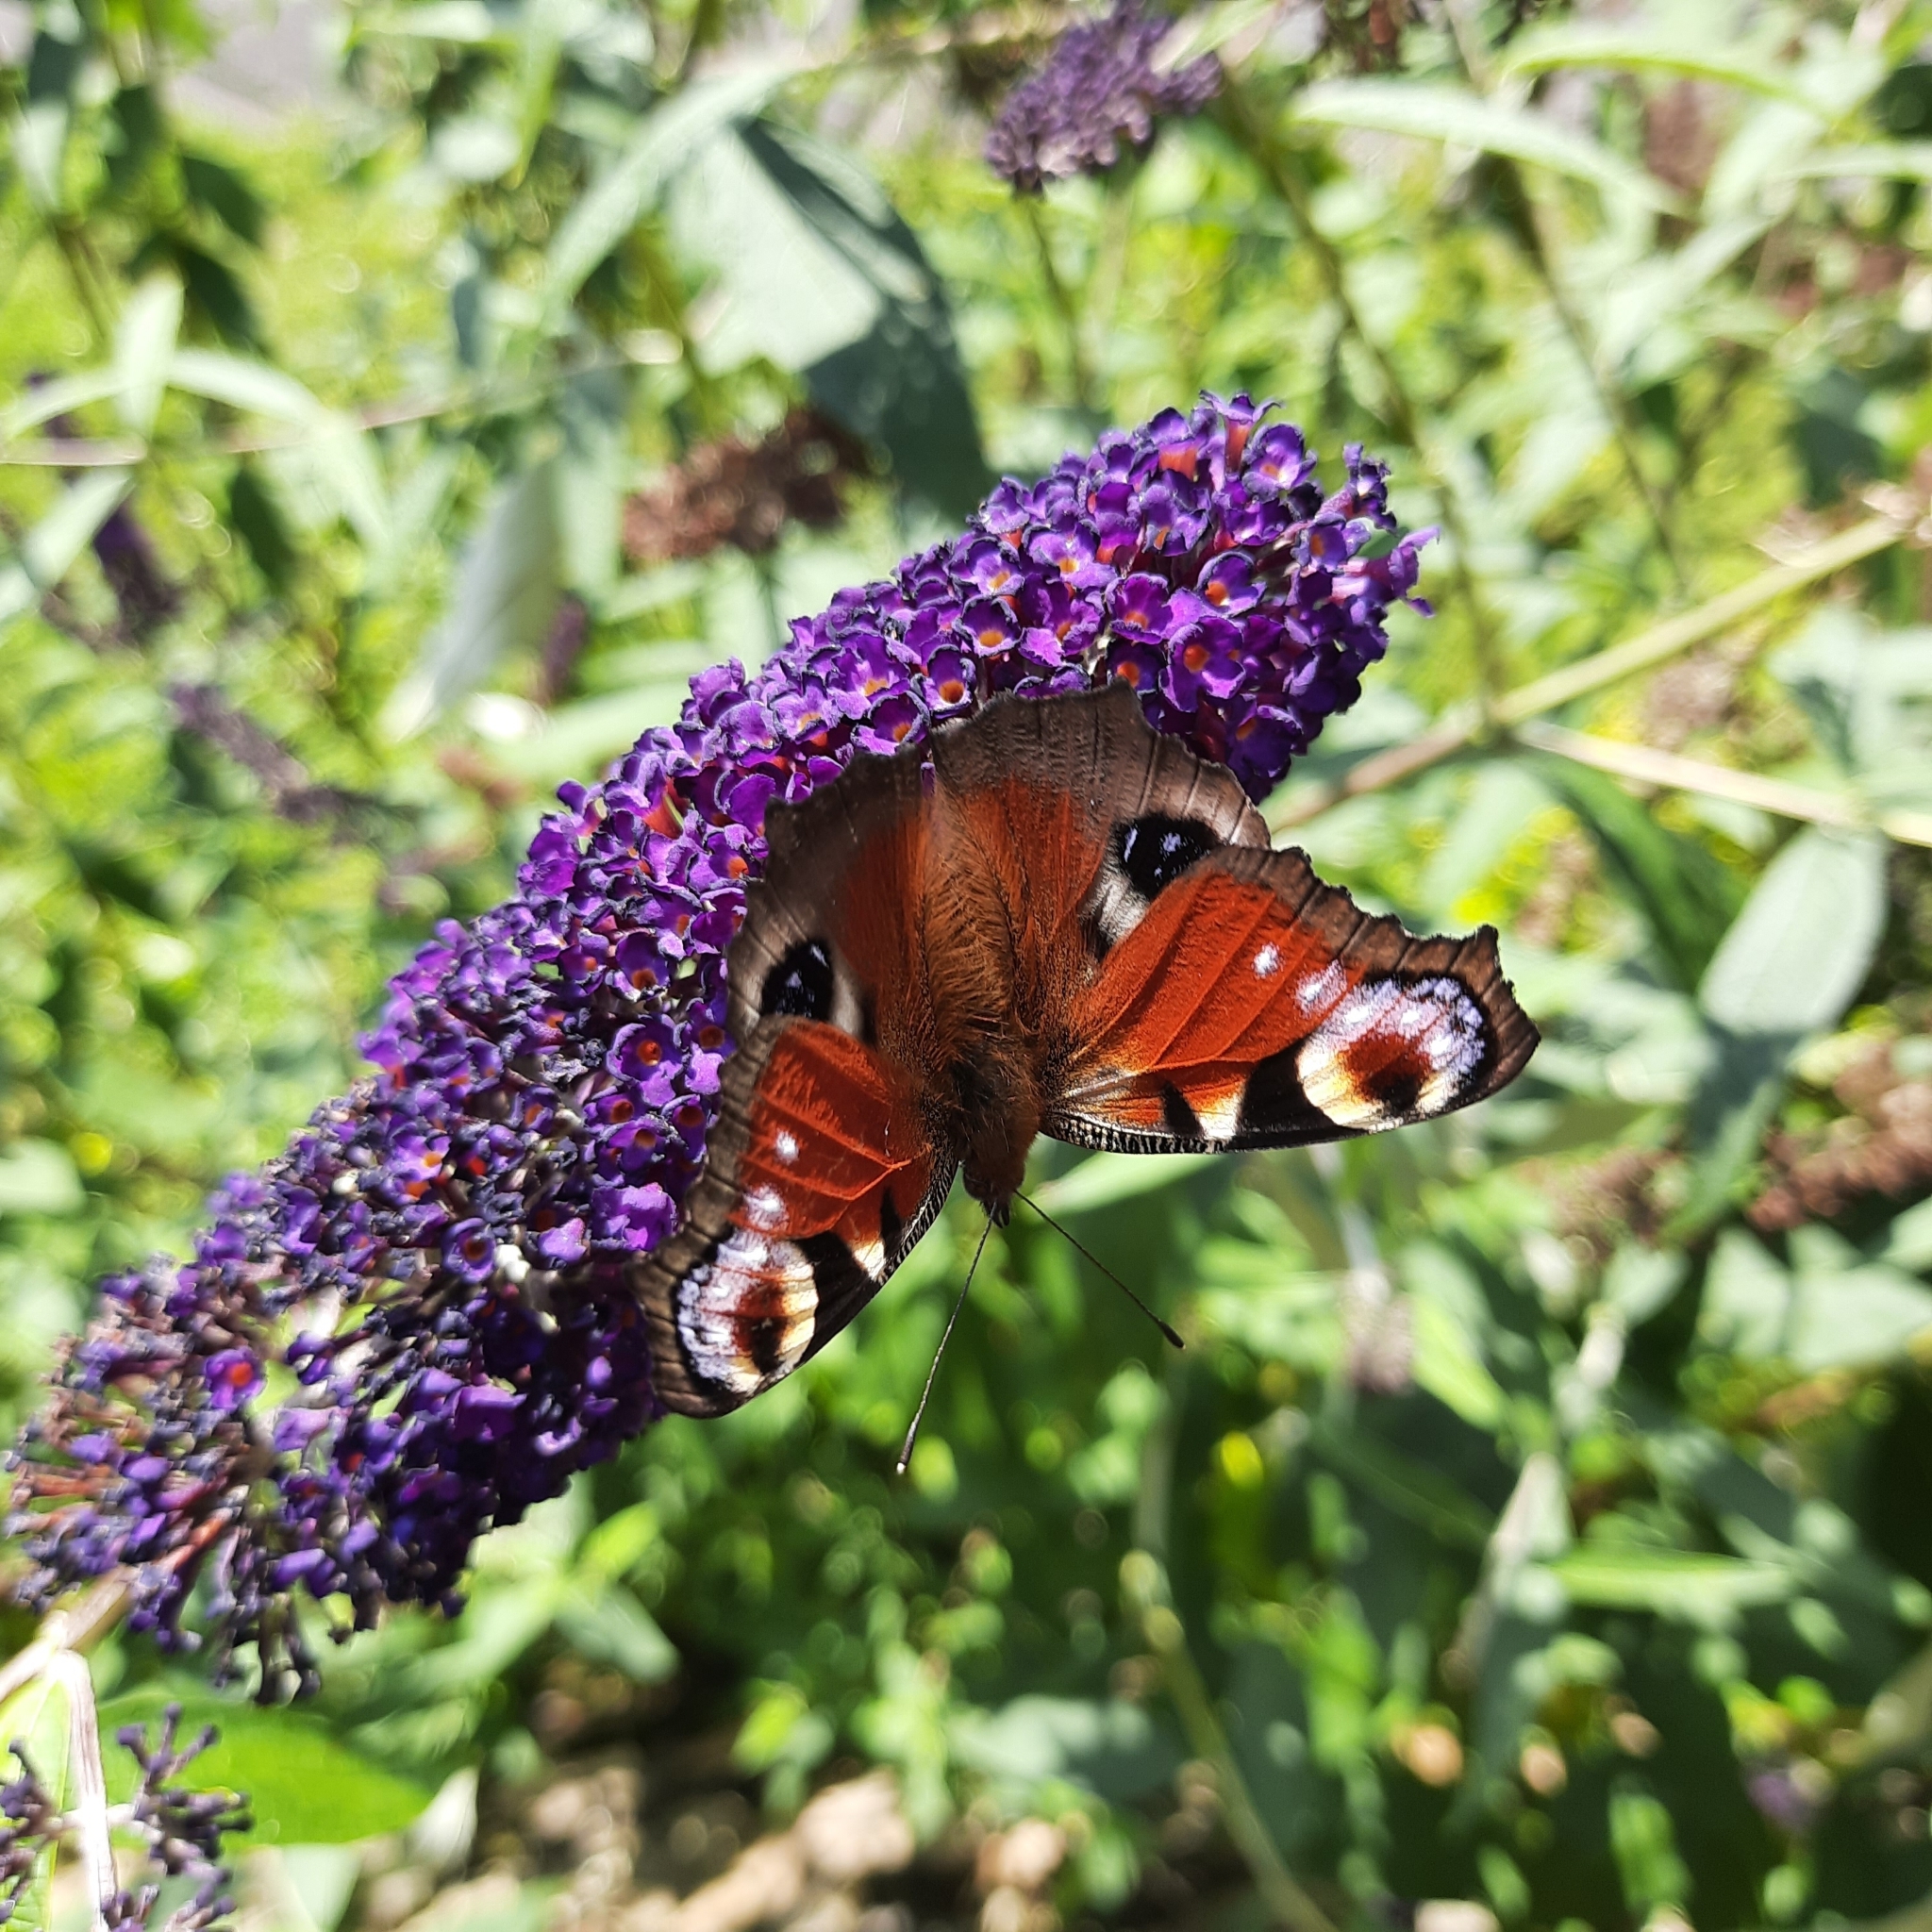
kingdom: Animalia
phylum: Arthropoda
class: Insecta
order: Lepidoptera
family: Nymphalidae
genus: Aglais
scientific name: Aglais io
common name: Peacock
